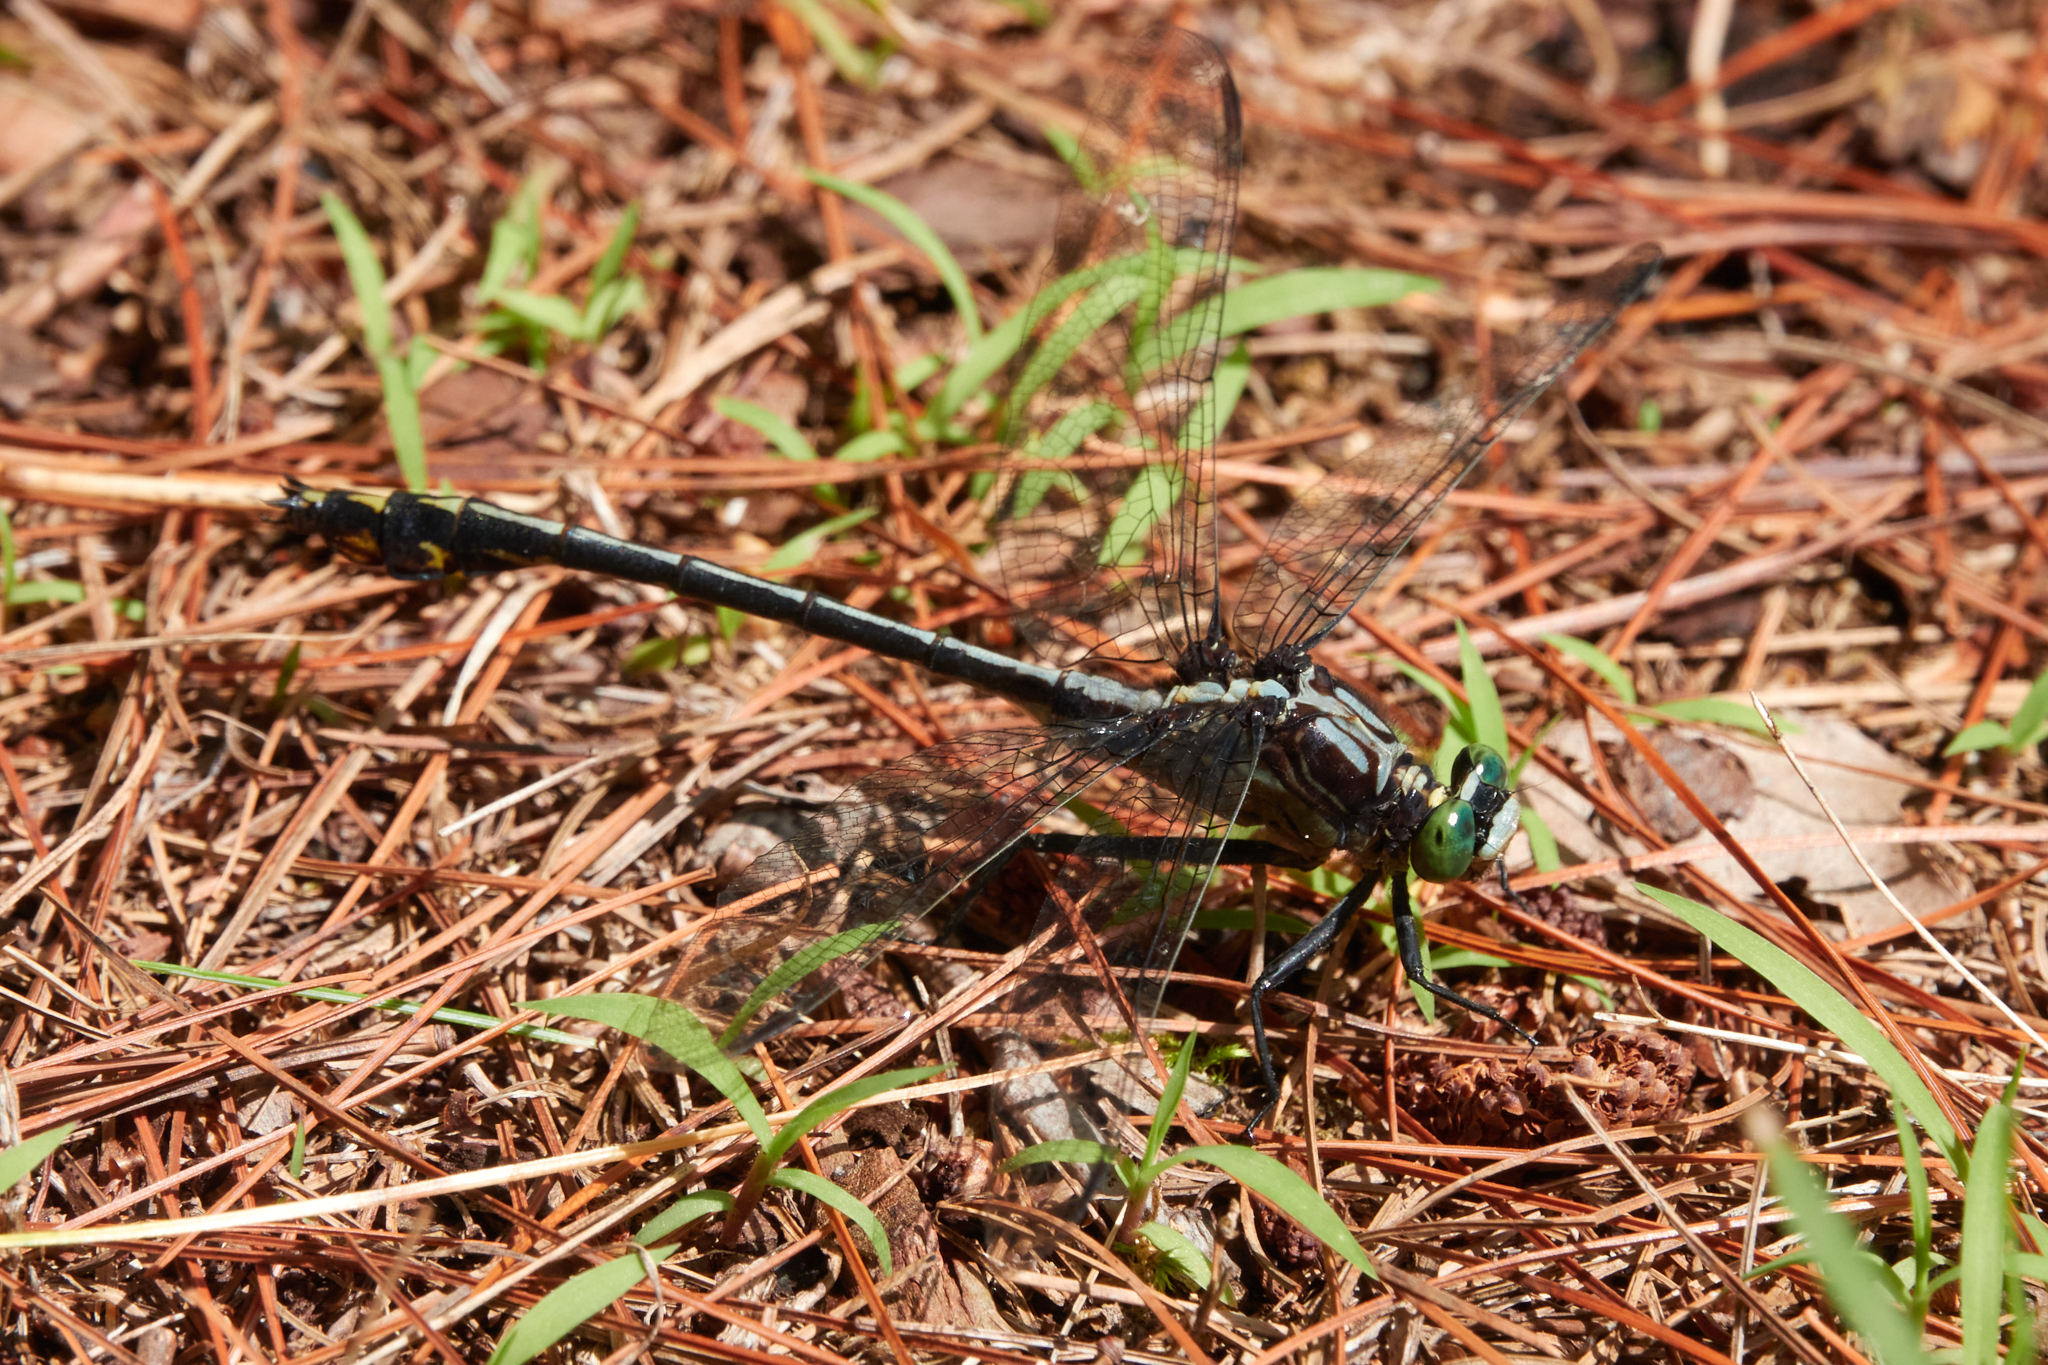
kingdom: Animalia
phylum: Arthropoda
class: Insecta
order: Odonata
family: Gomphidae
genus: Dromogomphus
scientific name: Dromogomphus spinosus
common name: Black-shouldered spinyleg
